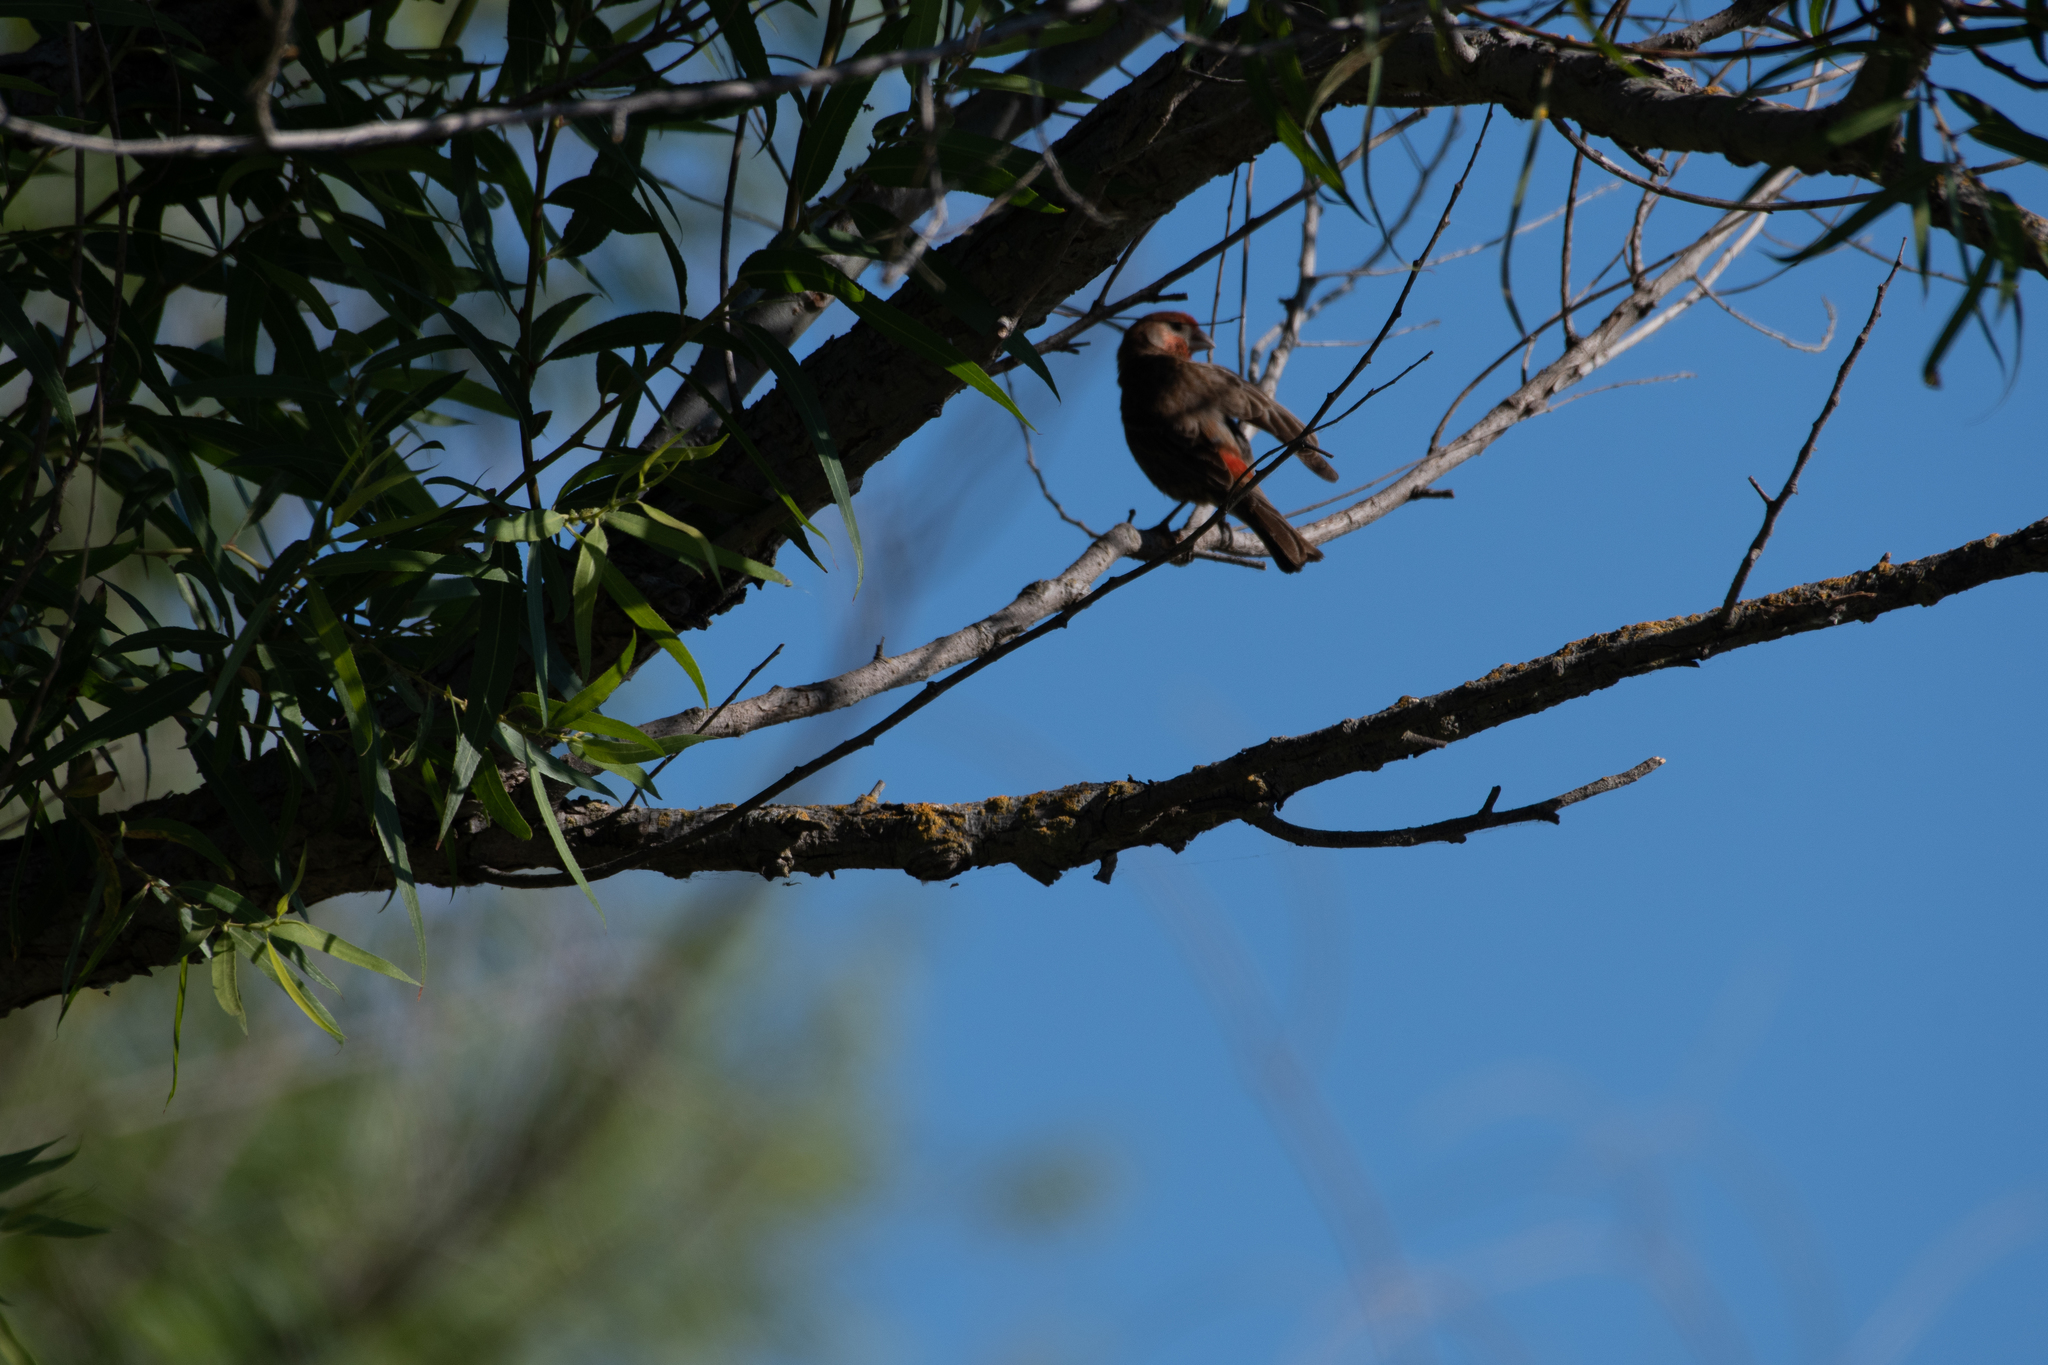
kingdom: Animalia
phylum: Chordata
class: Aves
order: Passeriformes
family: Fringillidae
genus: Haemorhous
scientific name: Haemorhous mexicanus
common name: House finch
